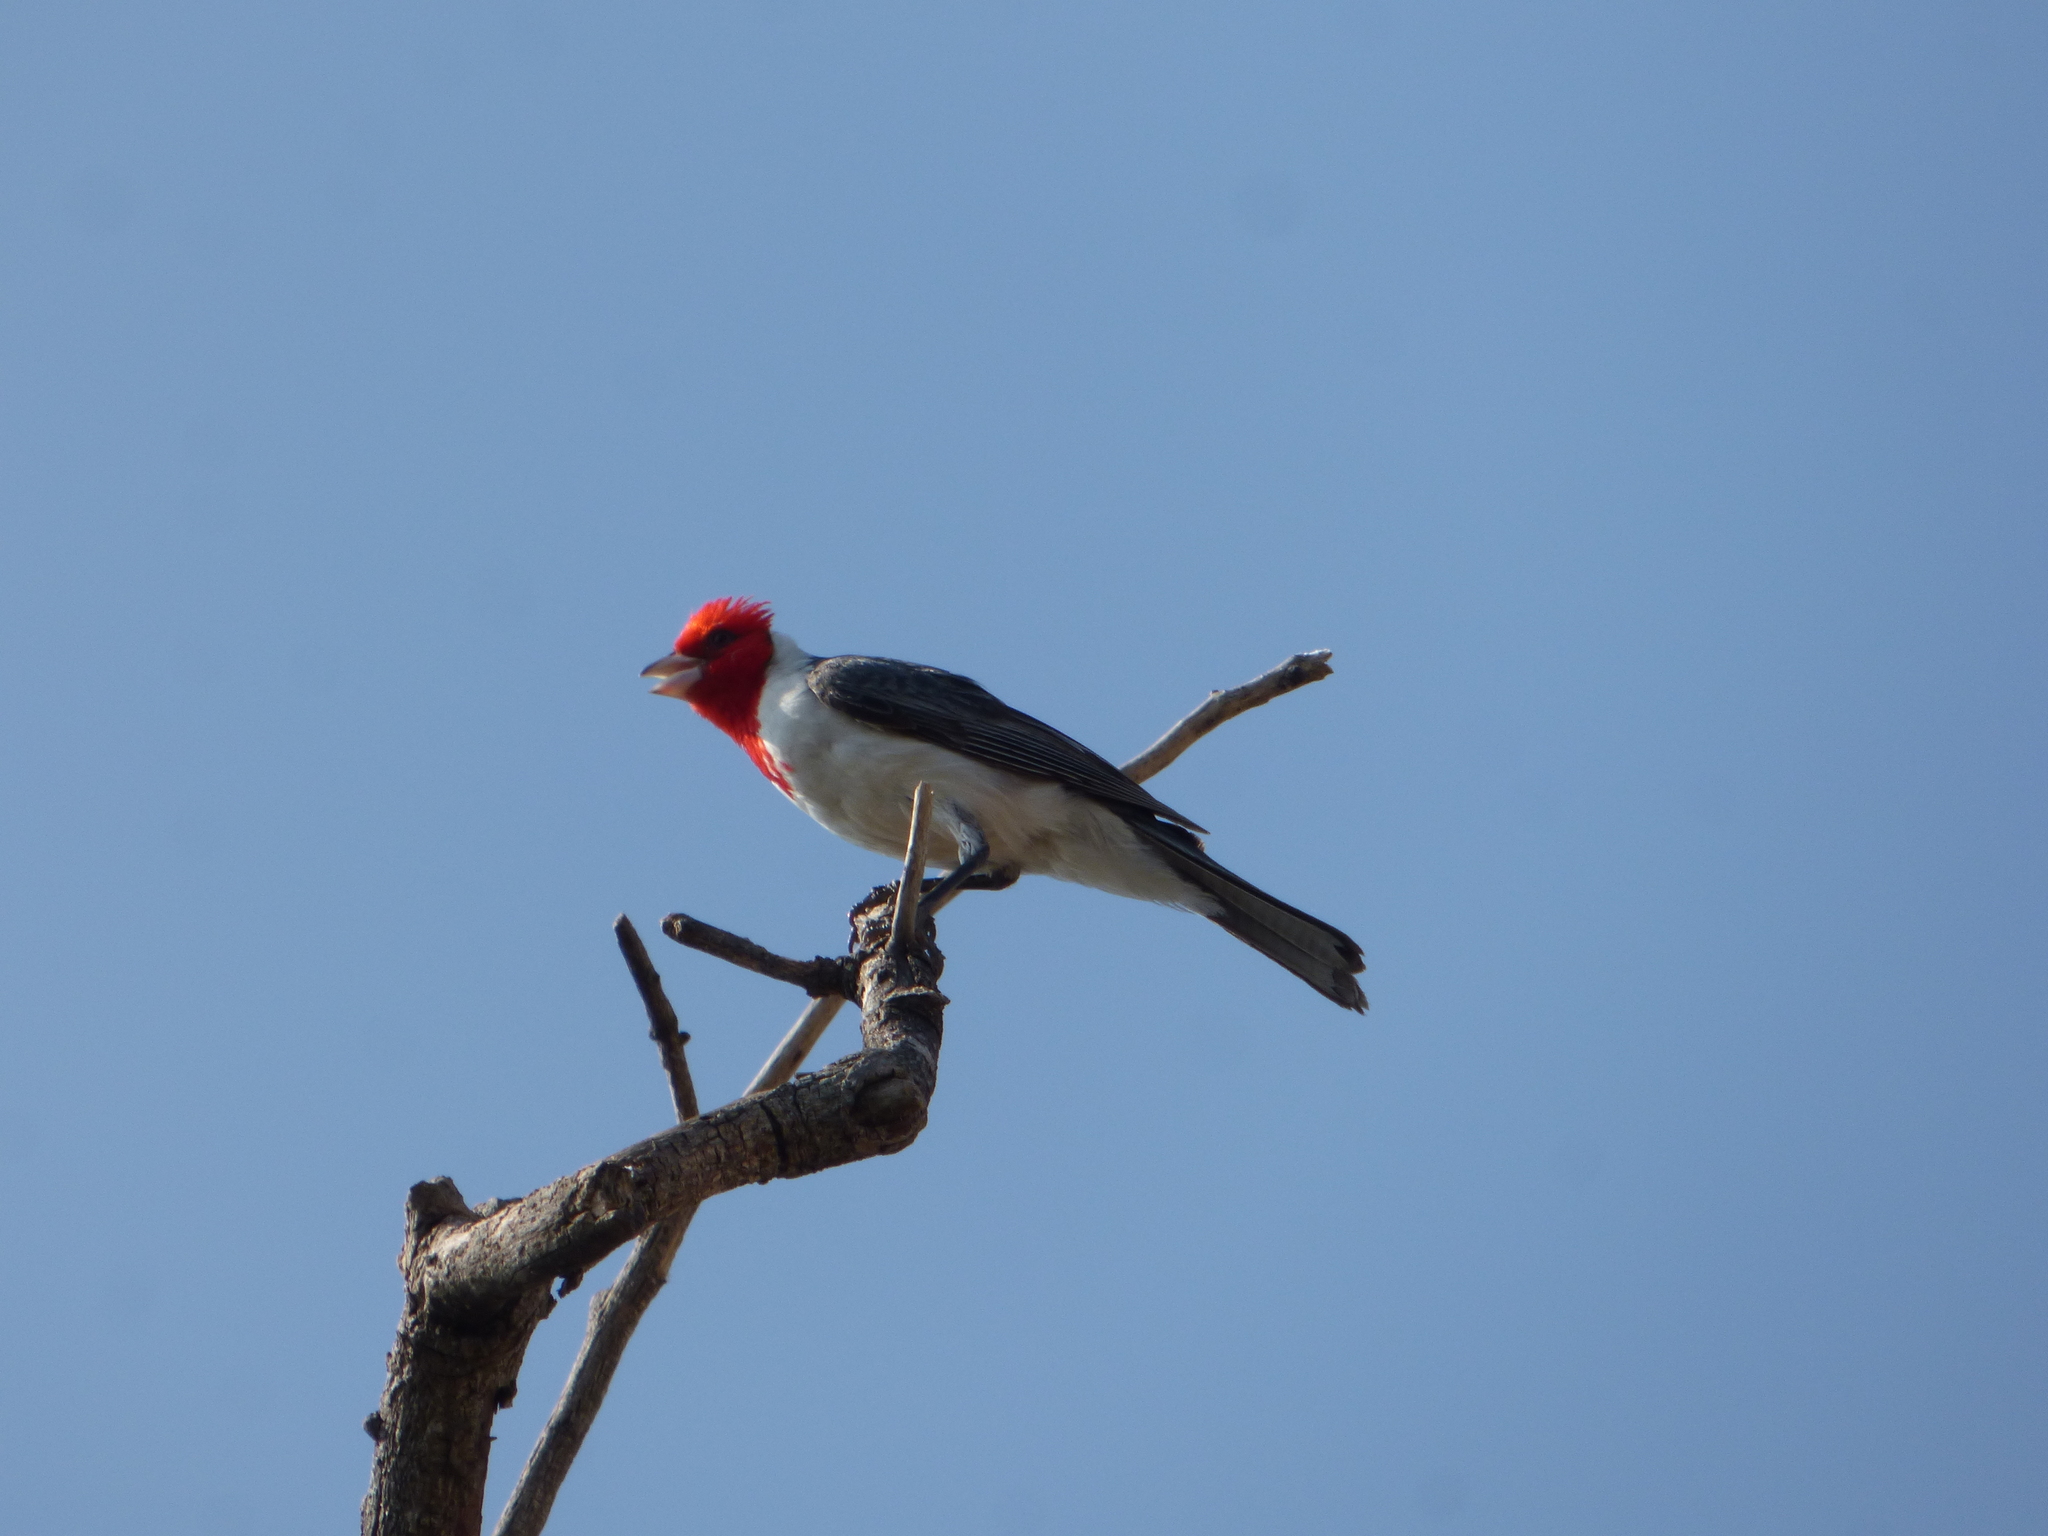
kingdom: Animalia
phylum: Chordata
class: Aves
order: Passeriformes
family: Thraupidae
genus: Paroaria
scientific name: Paroaria coronata
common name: Red-crested cardinal
